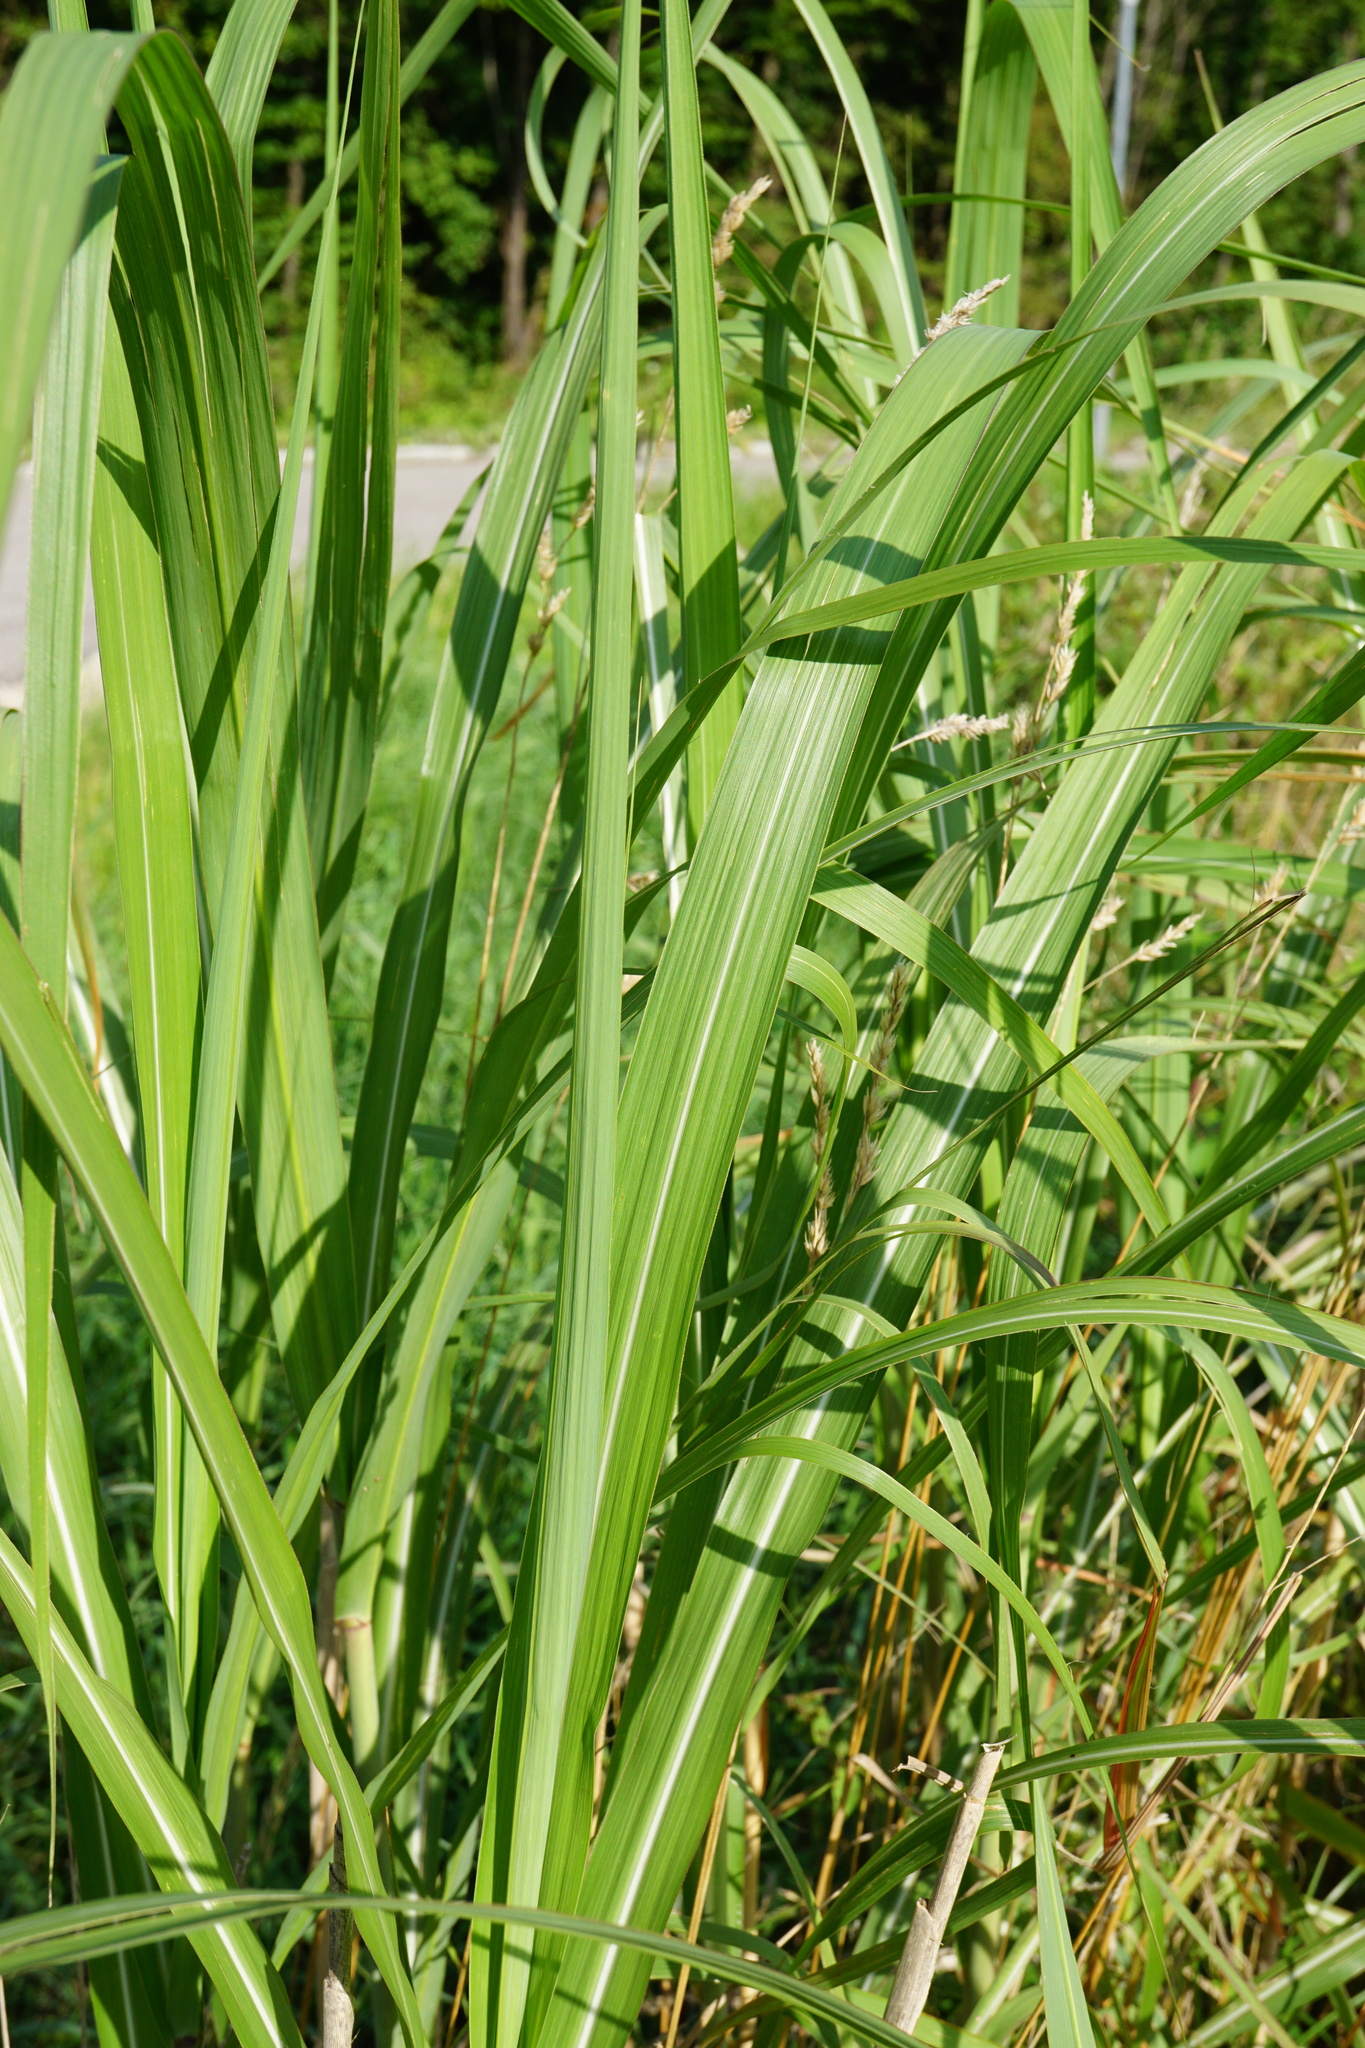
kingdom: Plantae
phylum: Tracheophyta
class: Liliopsida
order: Poales
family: Poaceae
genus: Miscanthus
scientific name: Miscanthus sinensis
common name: Chinese silvergrass
